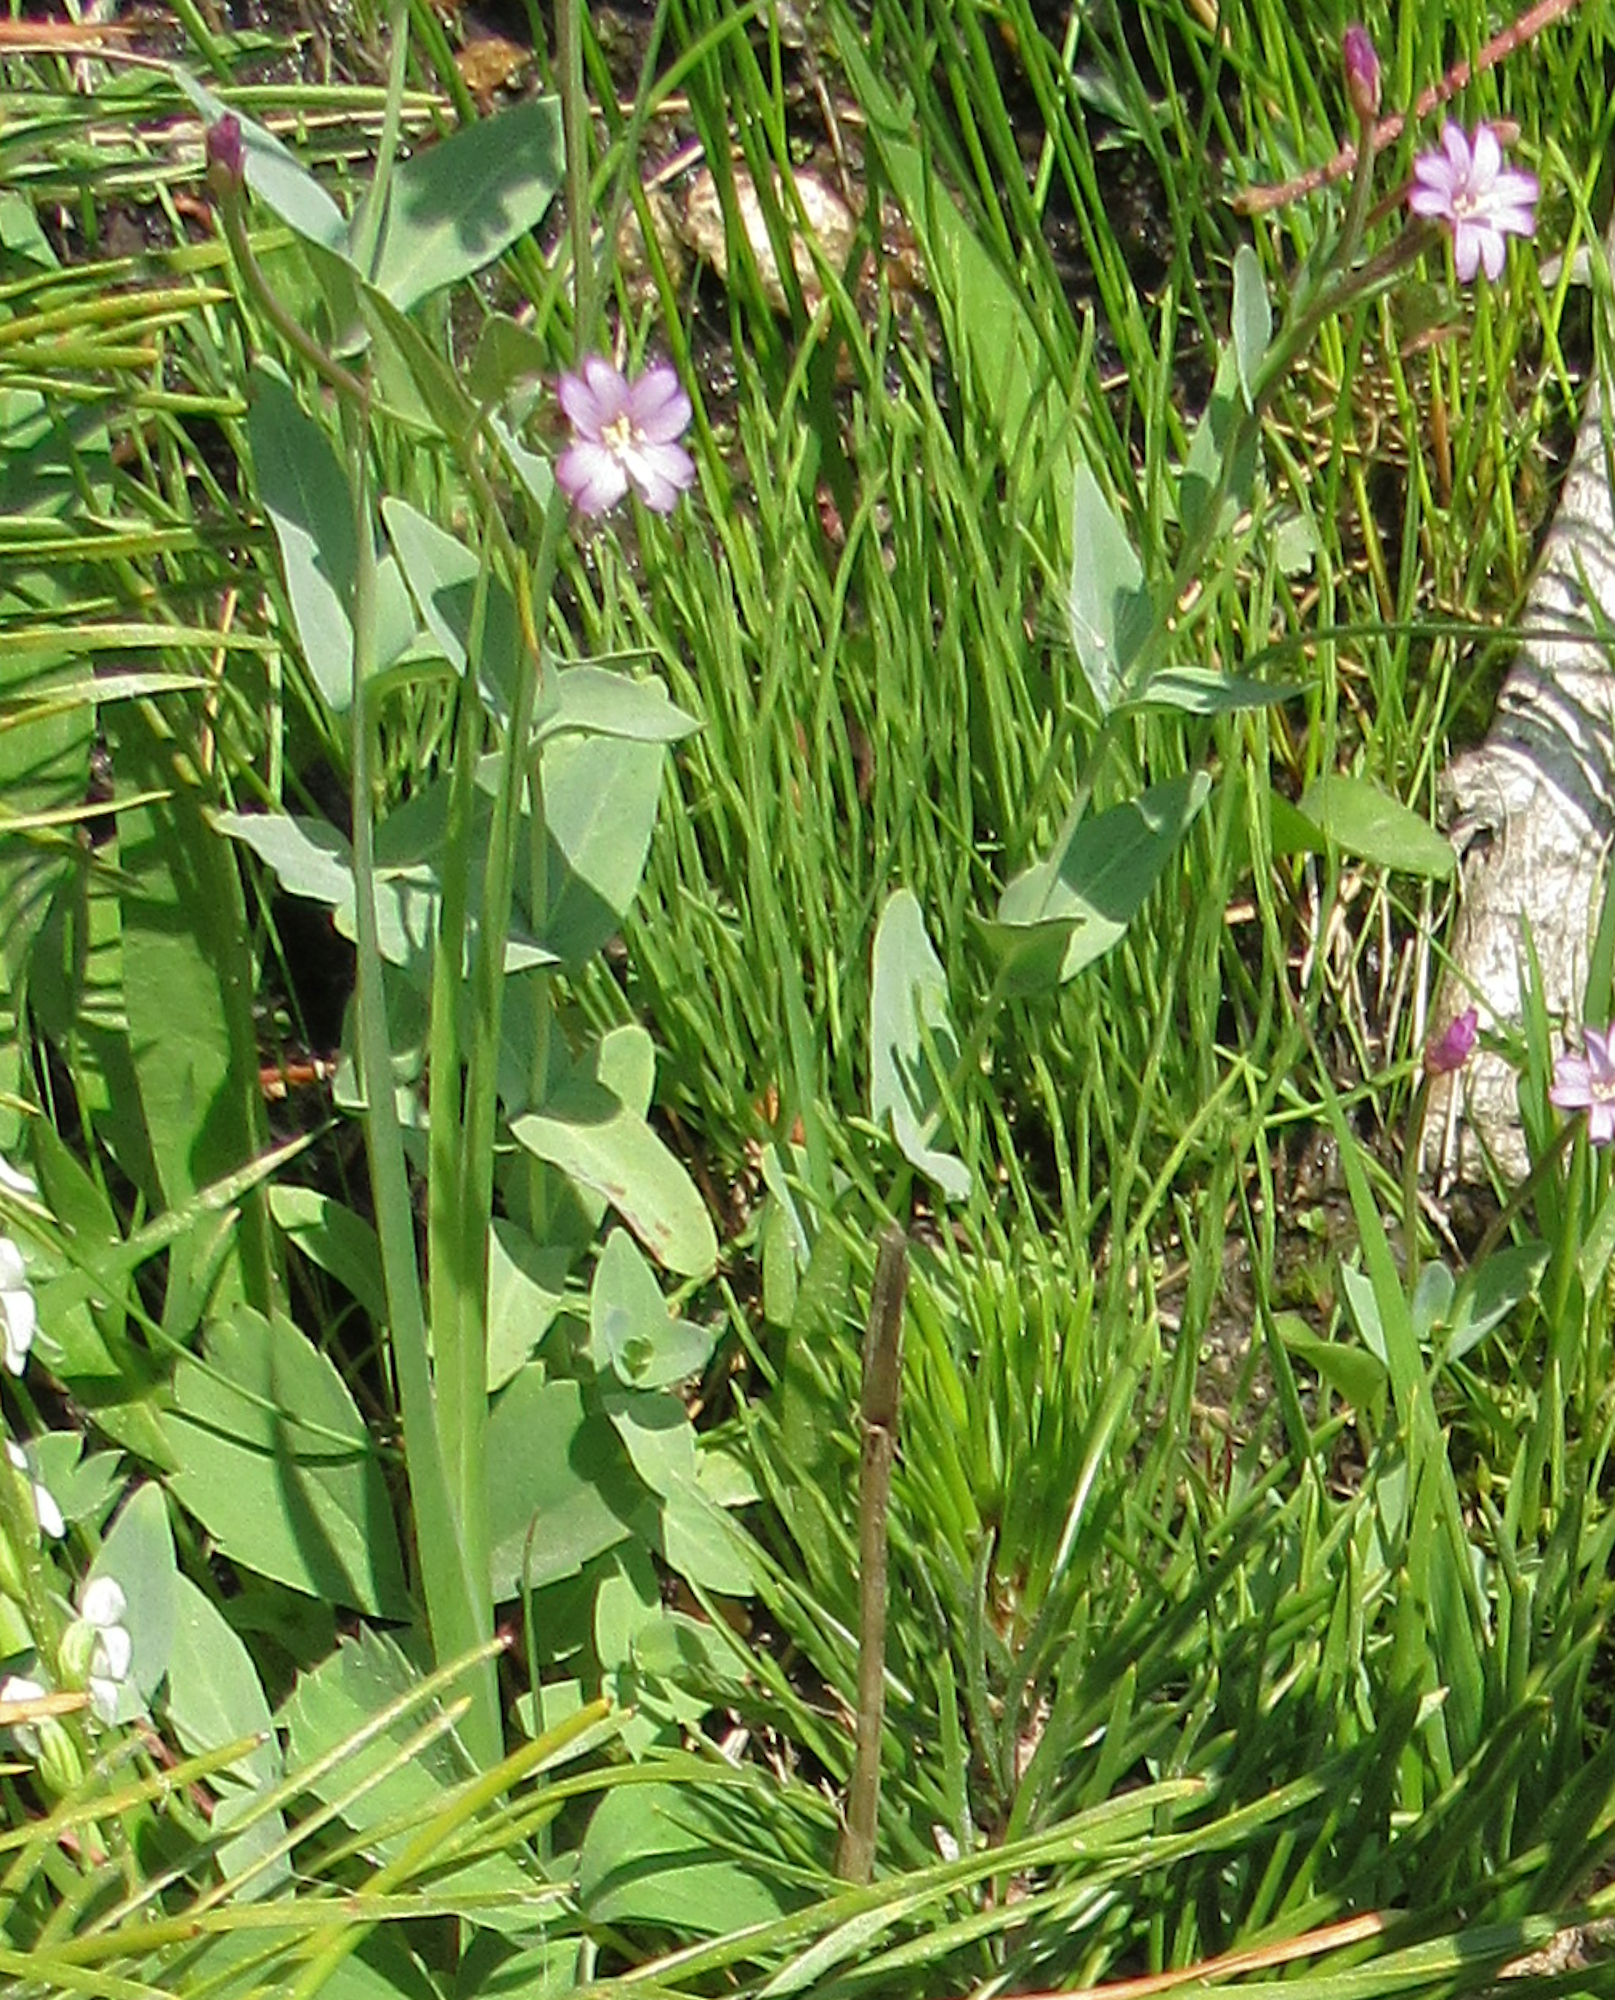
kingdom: Plantae
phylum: Tracheophyta
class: Magnoliopsida
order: Myrtales
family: Onagraceae
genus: Epilobium
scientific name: Epilobium glaberrimum
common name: Glaucous willowherb
